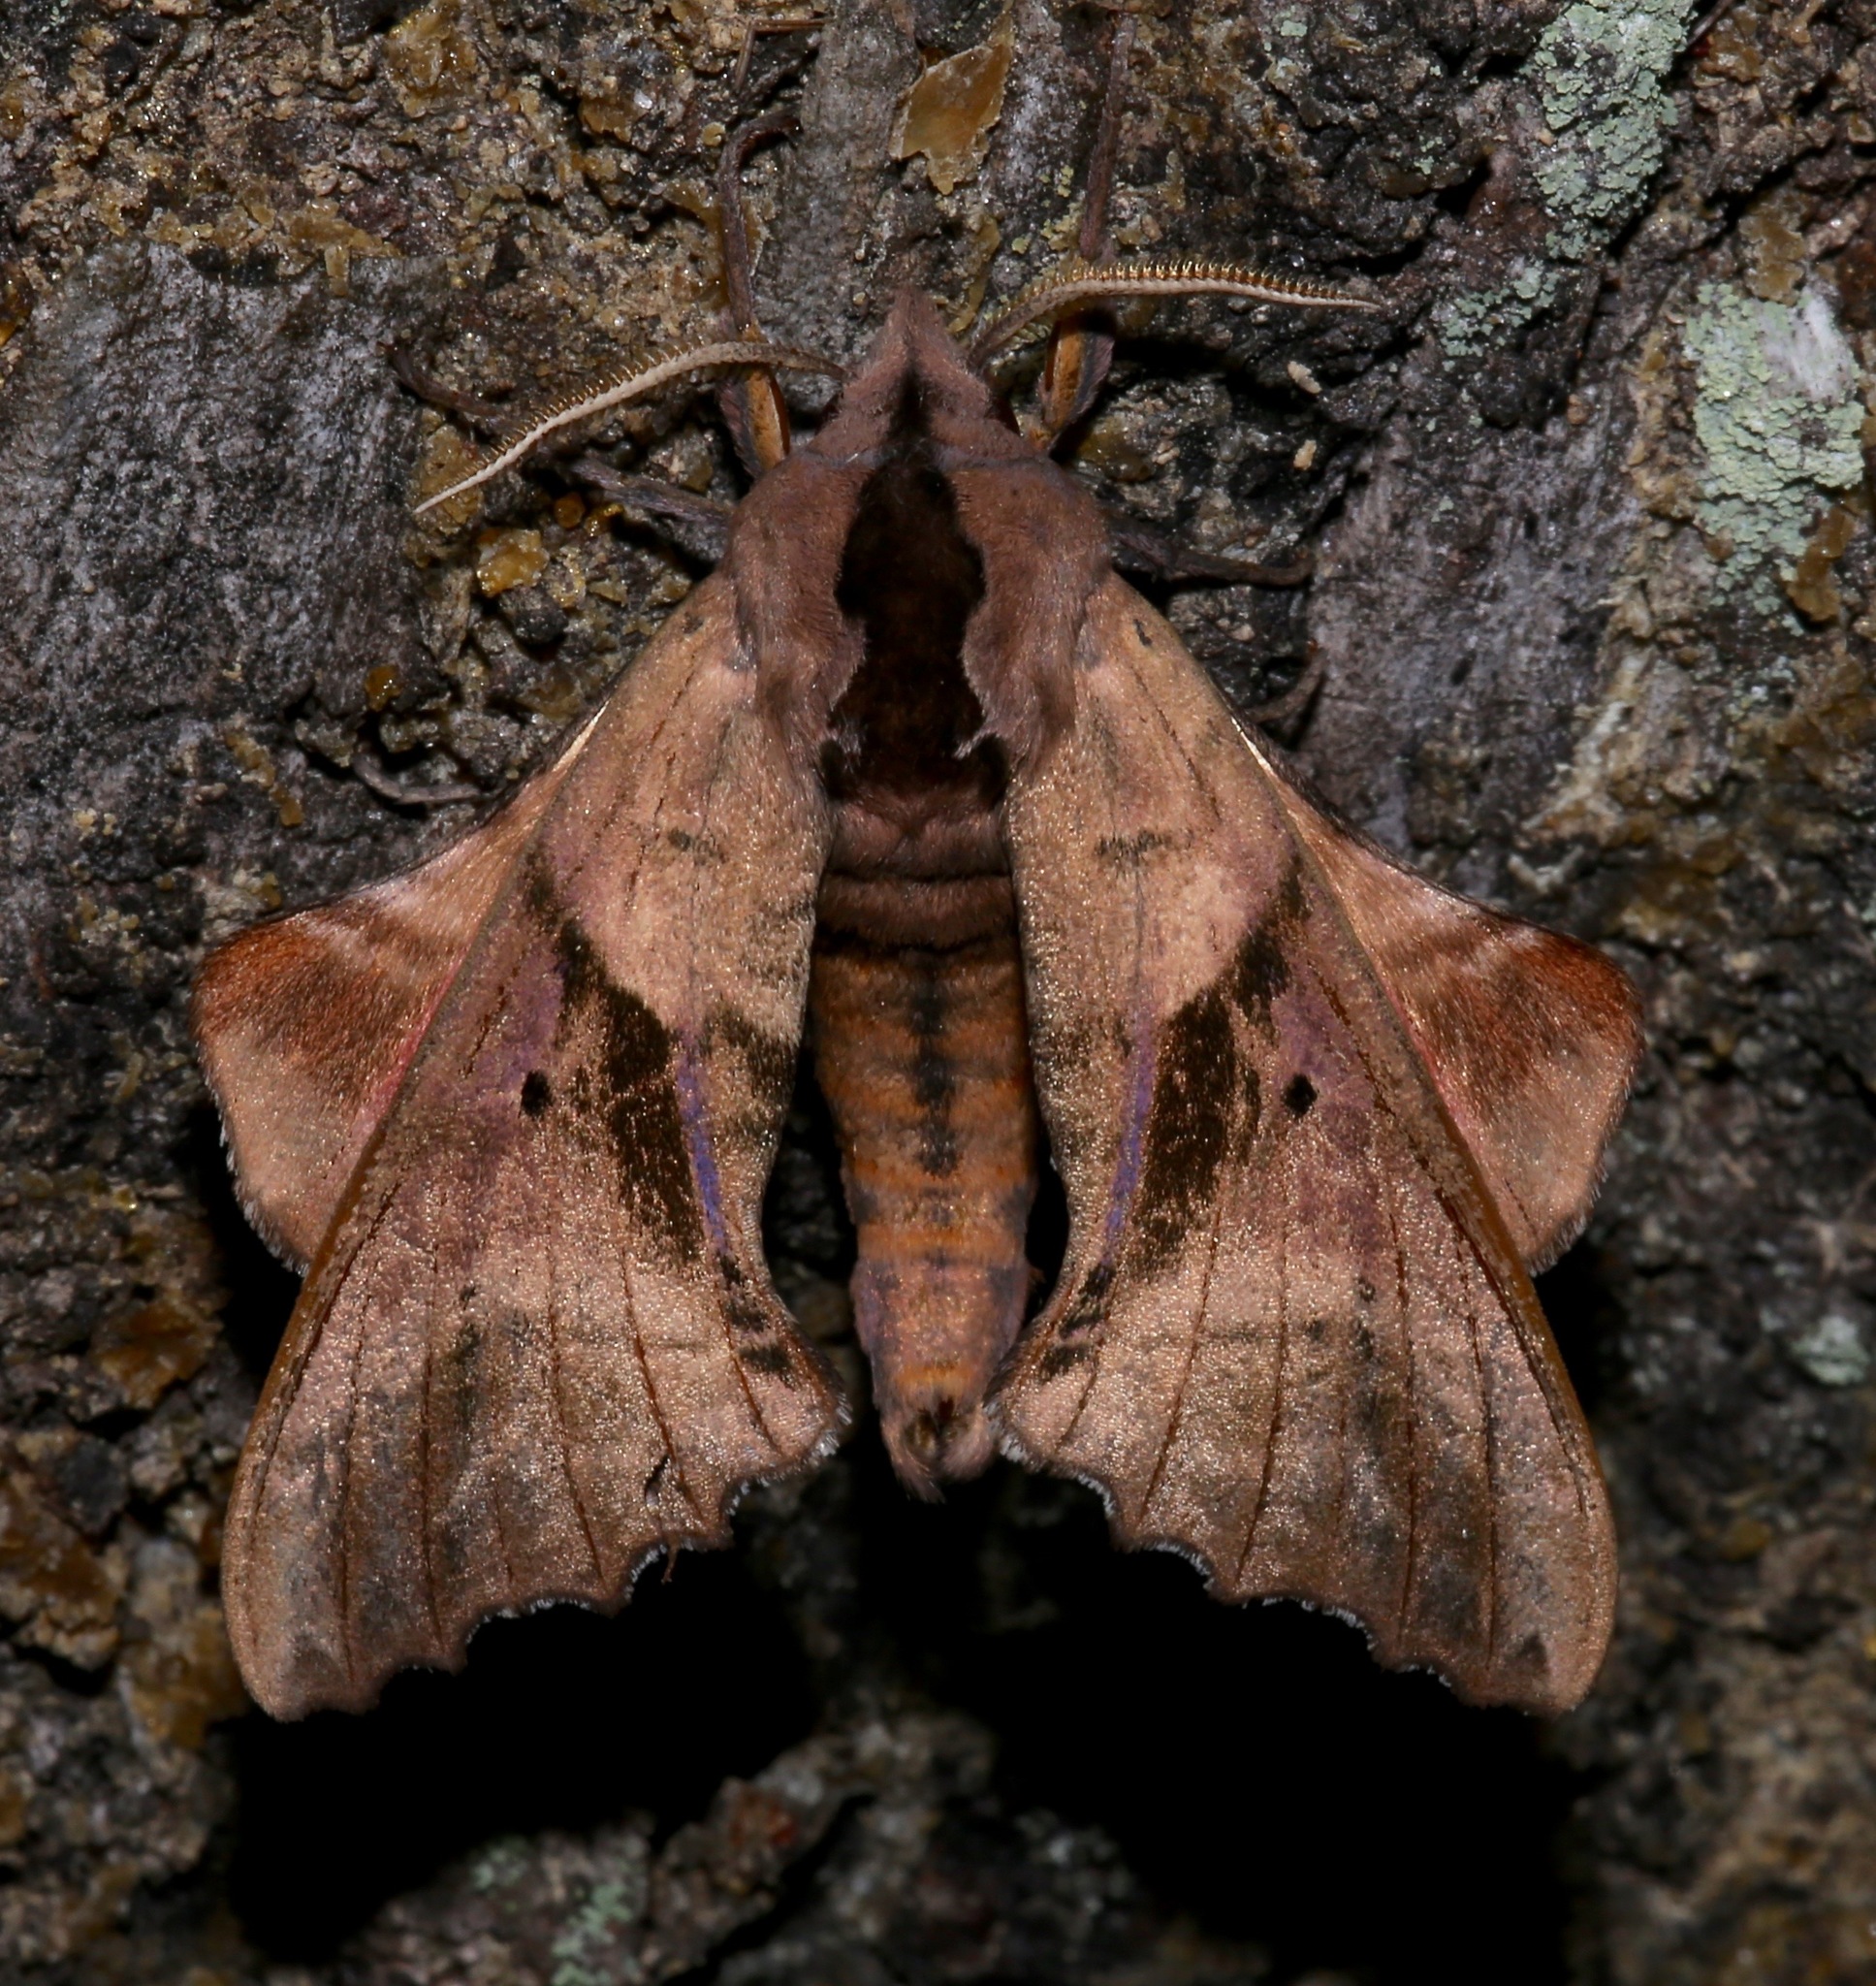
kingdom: Animalia
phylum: Arthropoda
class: Insecta
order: Lepidoptera
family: Sphingidae
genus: Paonias
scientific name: Paonias excaecata
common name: Blind-eyed sphinx
